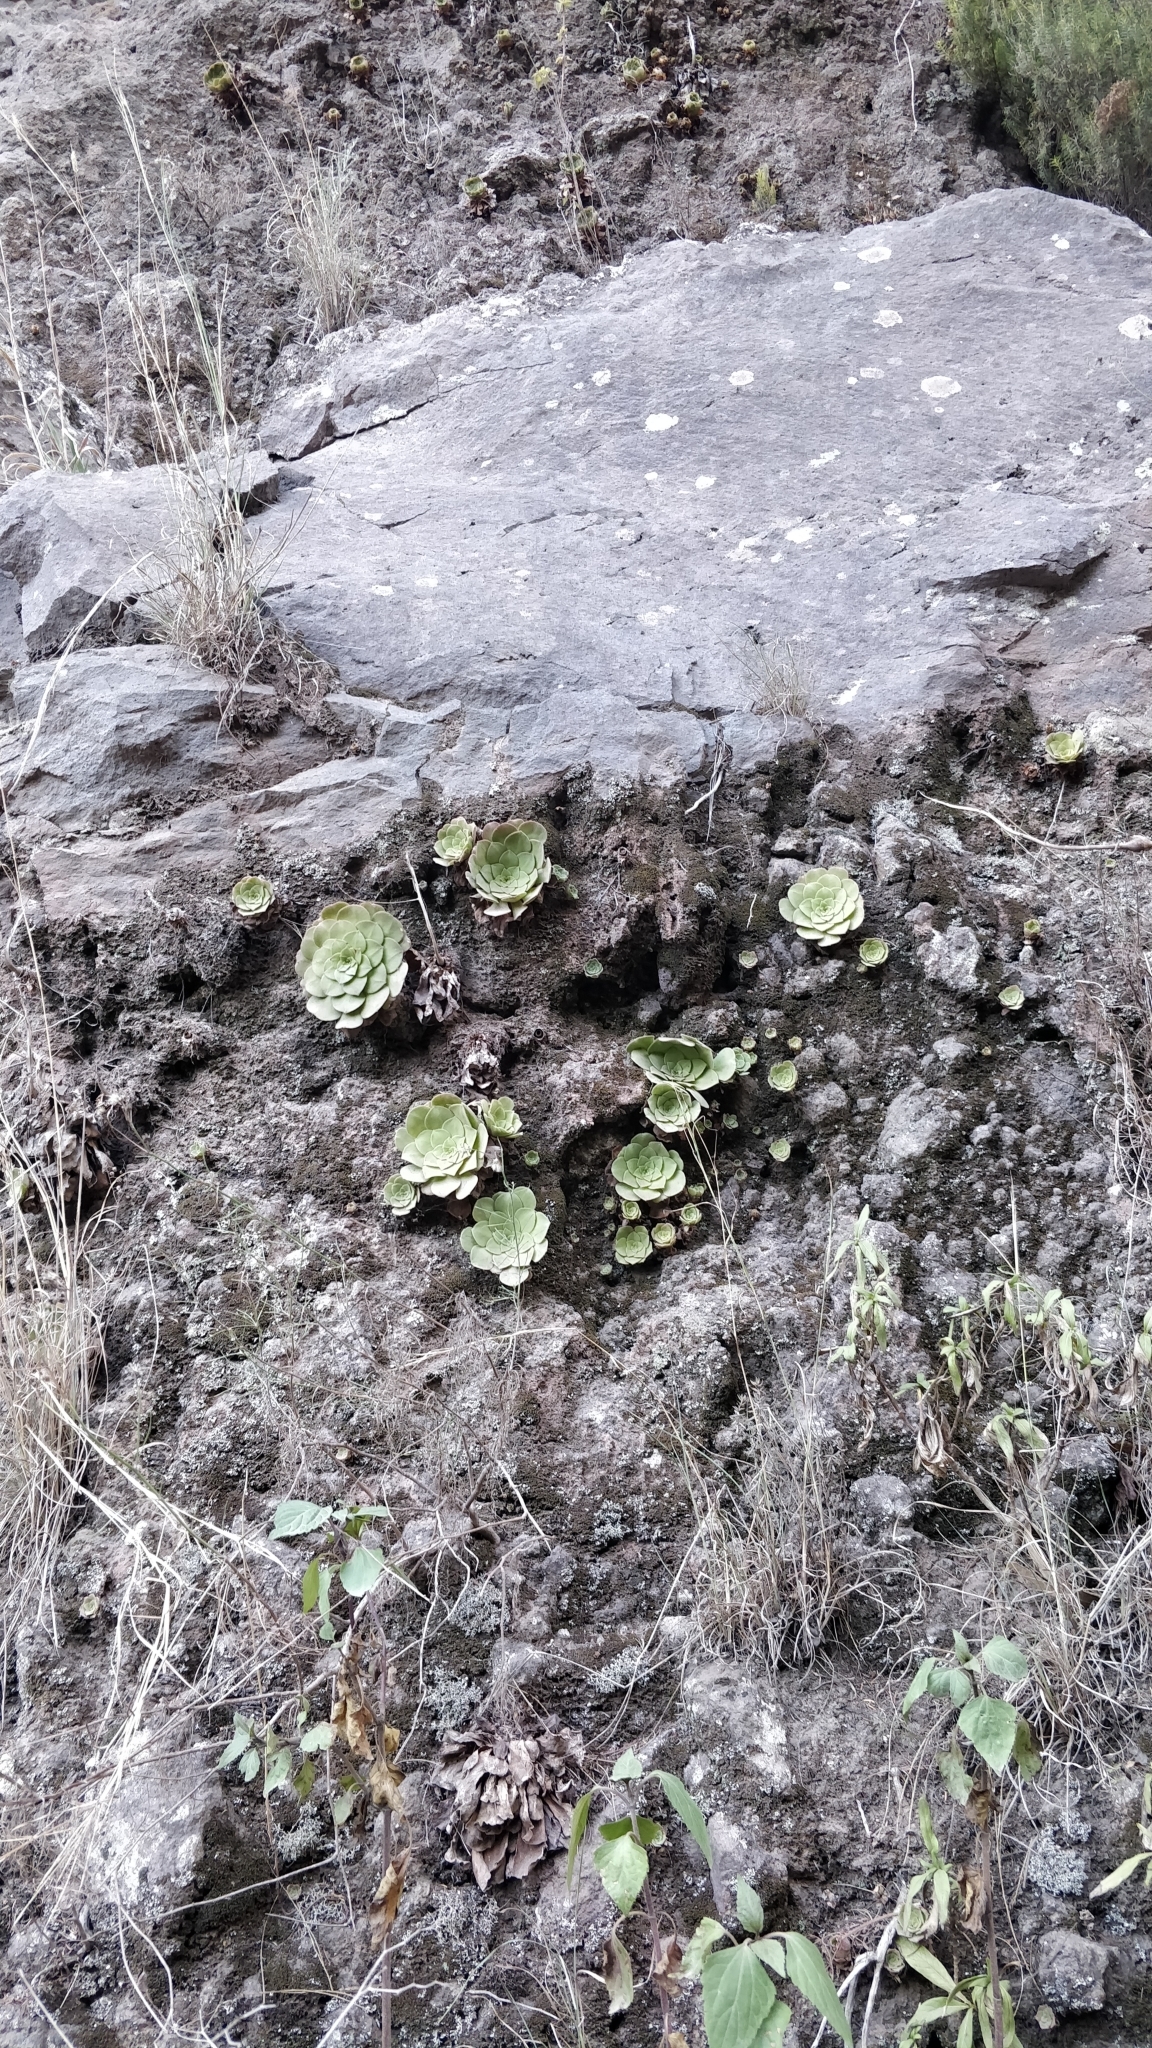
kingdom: Plantae
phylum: Tracheophyta
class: Magnoliopsida
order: Saxifragales
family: Crassulaceae
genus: Aeonium
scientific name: Aeonium glandulosum
